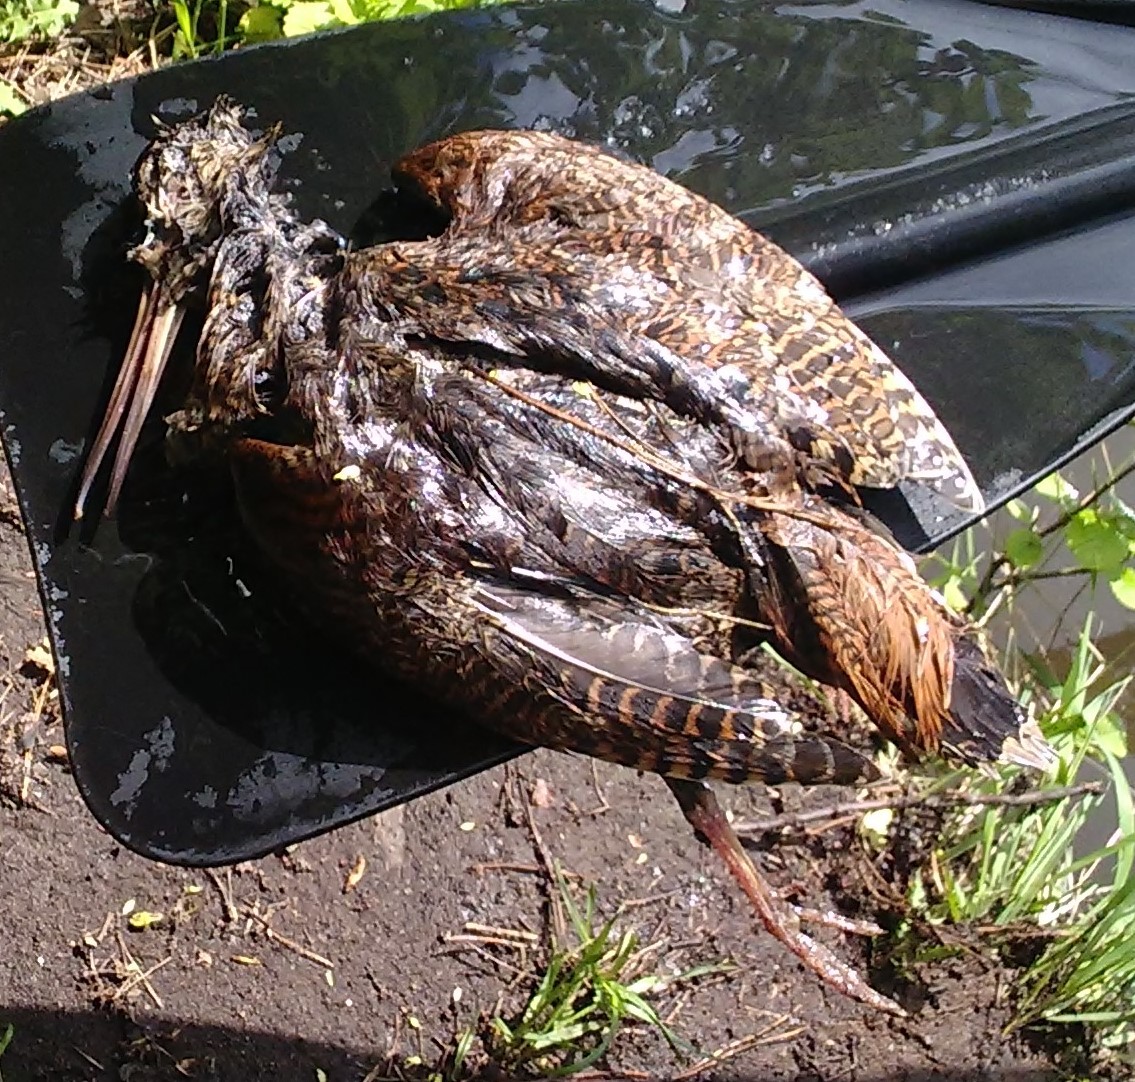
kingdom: Animalia
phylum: Chordata
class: Aves
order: Charadriiformes
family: Scolopacidae
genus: Scolopax
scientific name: Scolopax rusticola
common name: Eurasian woodcock
